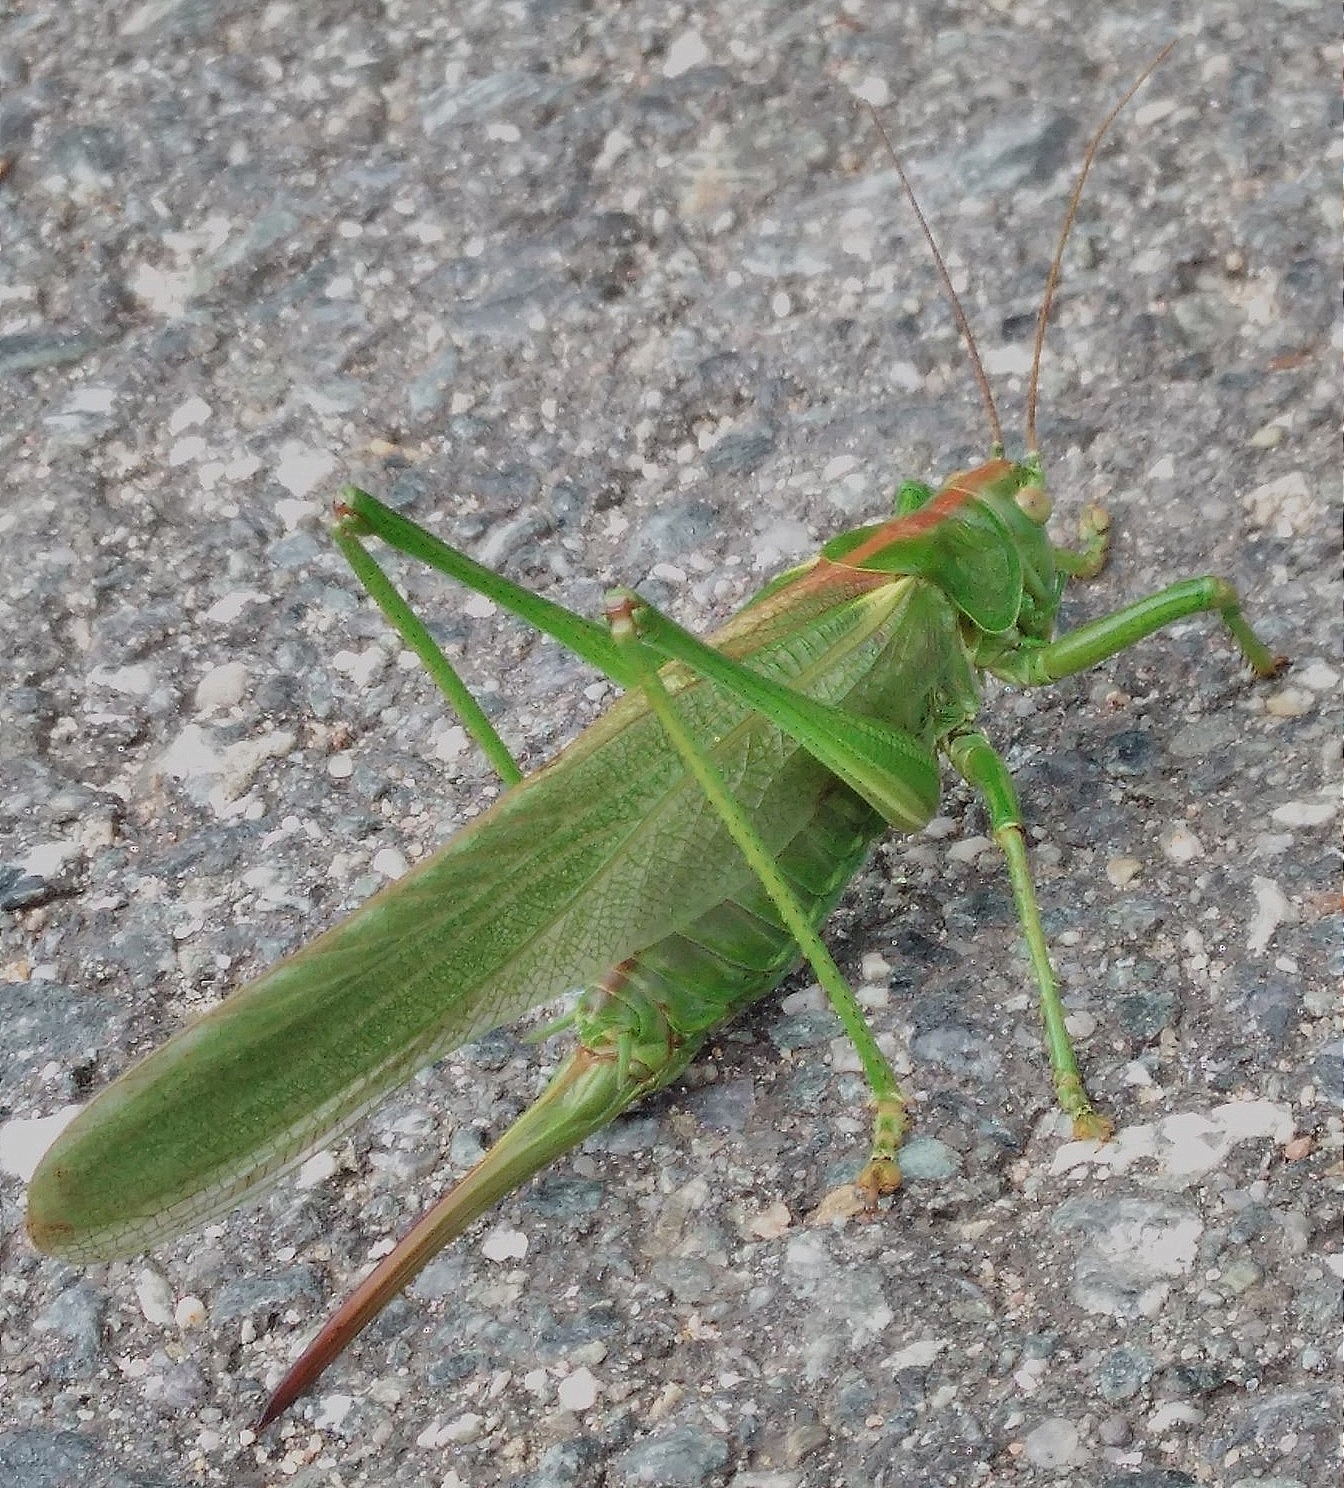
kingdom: Animalia
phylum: Arthropoda
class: Insecta
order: Orthoptera
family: Tettigoniidae
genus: Tettigonia
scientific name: Tettigonia viridissima
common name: Great green bush-cricket
